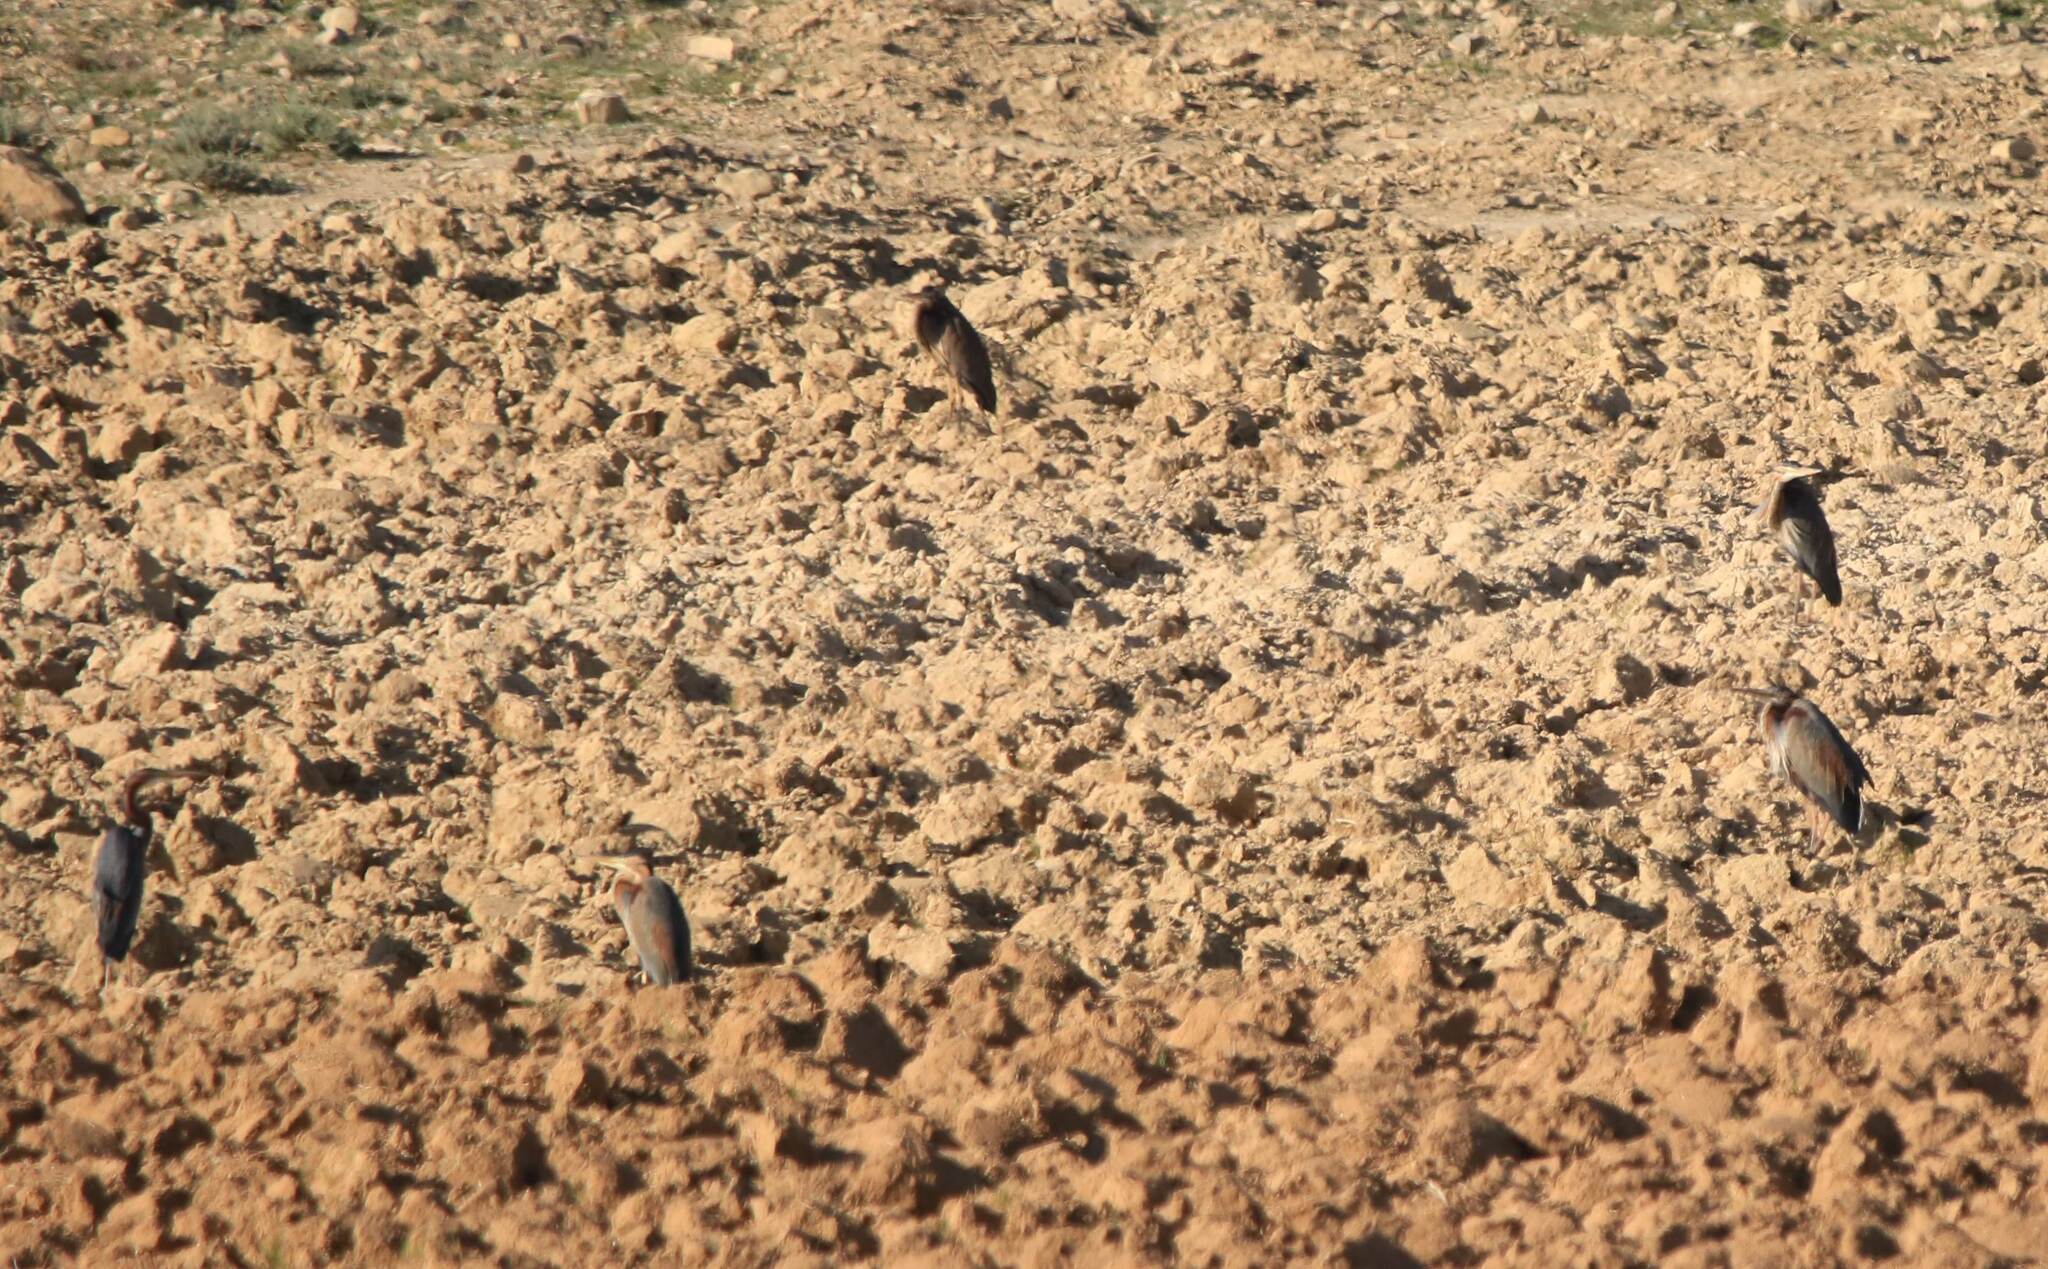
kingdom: Animalia
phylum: Chordata
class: Aves
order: Pelecaniformes
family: Ardeidae
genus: Ardea
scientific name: Ardea purpurea
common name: Purple heron
